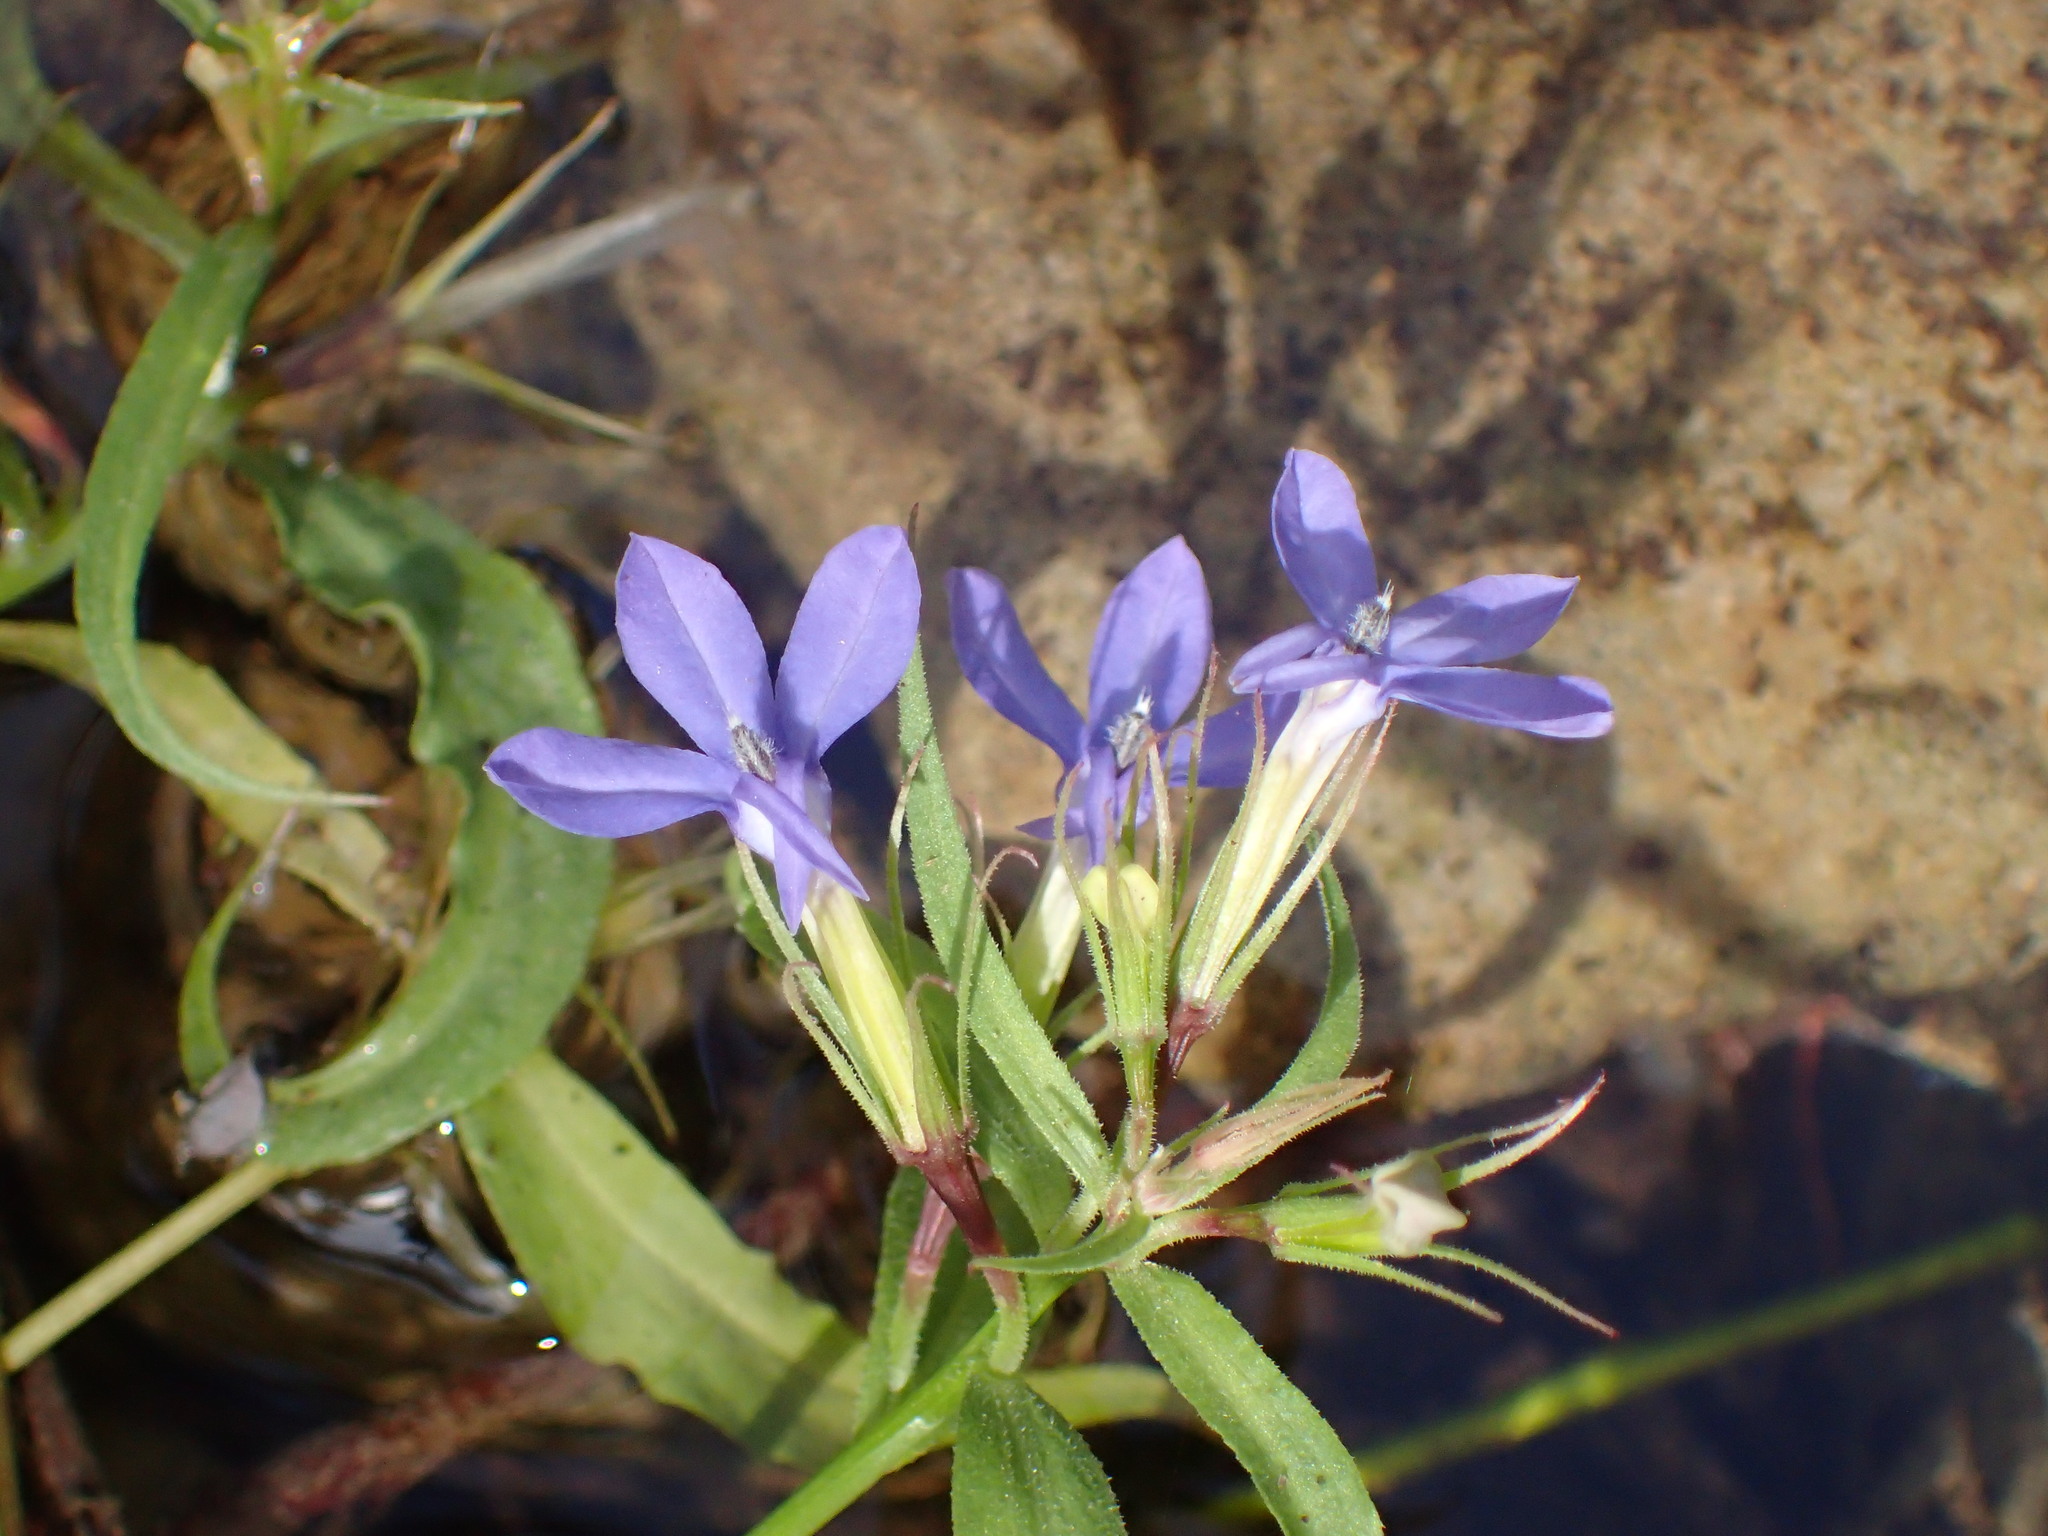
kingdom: Plantae
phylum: Tracheophyta
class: Magnoliopsida
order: Asterales
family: Campanulaceae
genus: Palmerella
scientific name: Palmerella debilis
